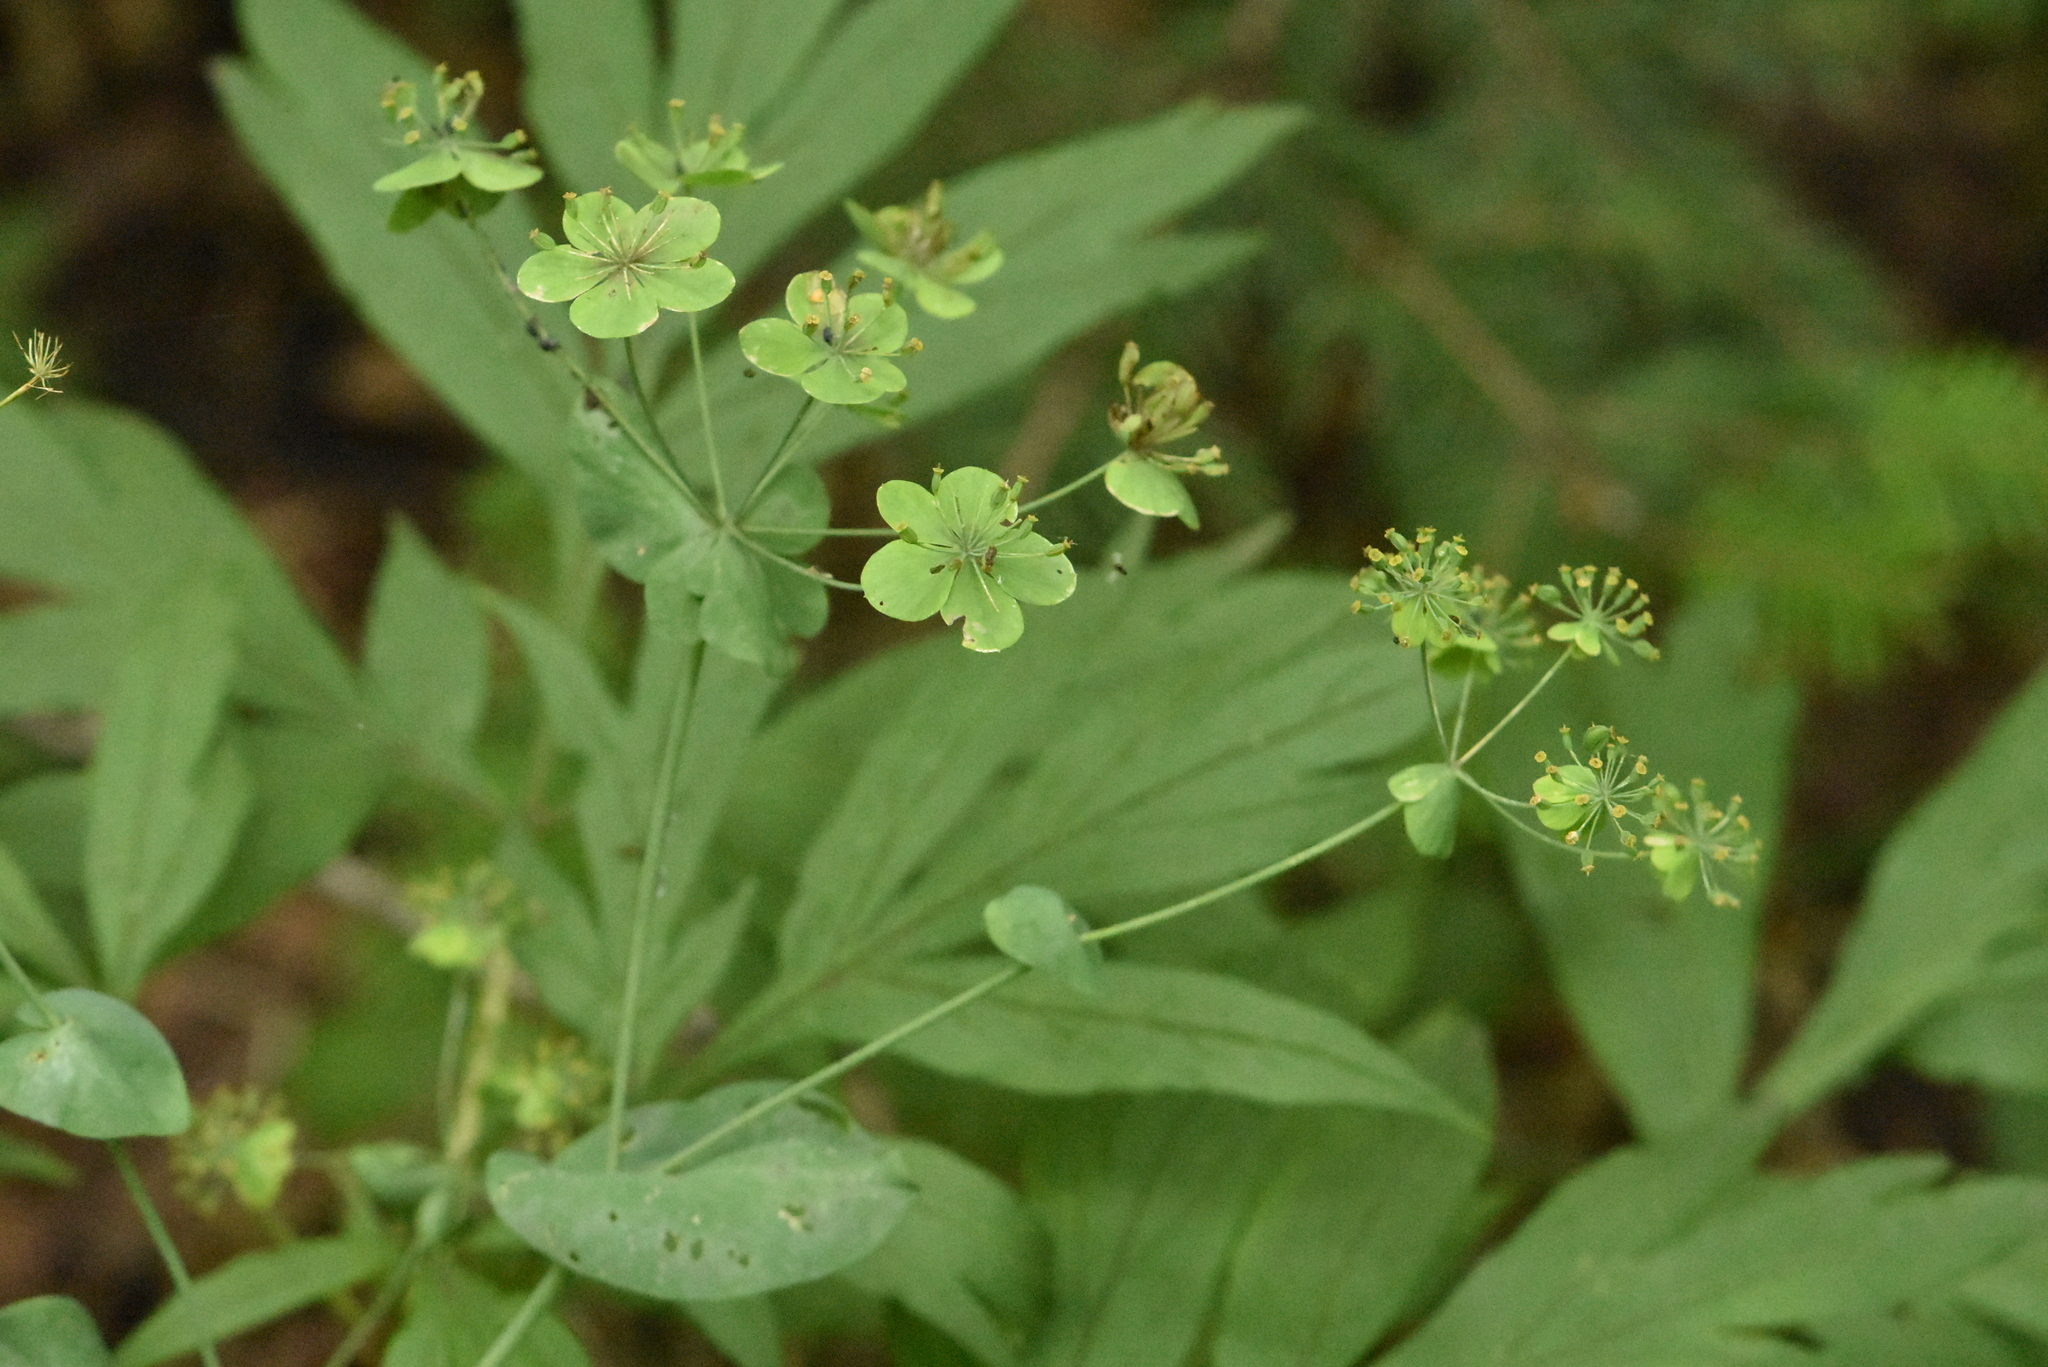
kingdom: Plantae
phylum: Tracheophyta
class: Magnoliopsida
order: Apiales
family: Apiaceae
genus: Bupleurum
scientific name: Bupleurum aureum
